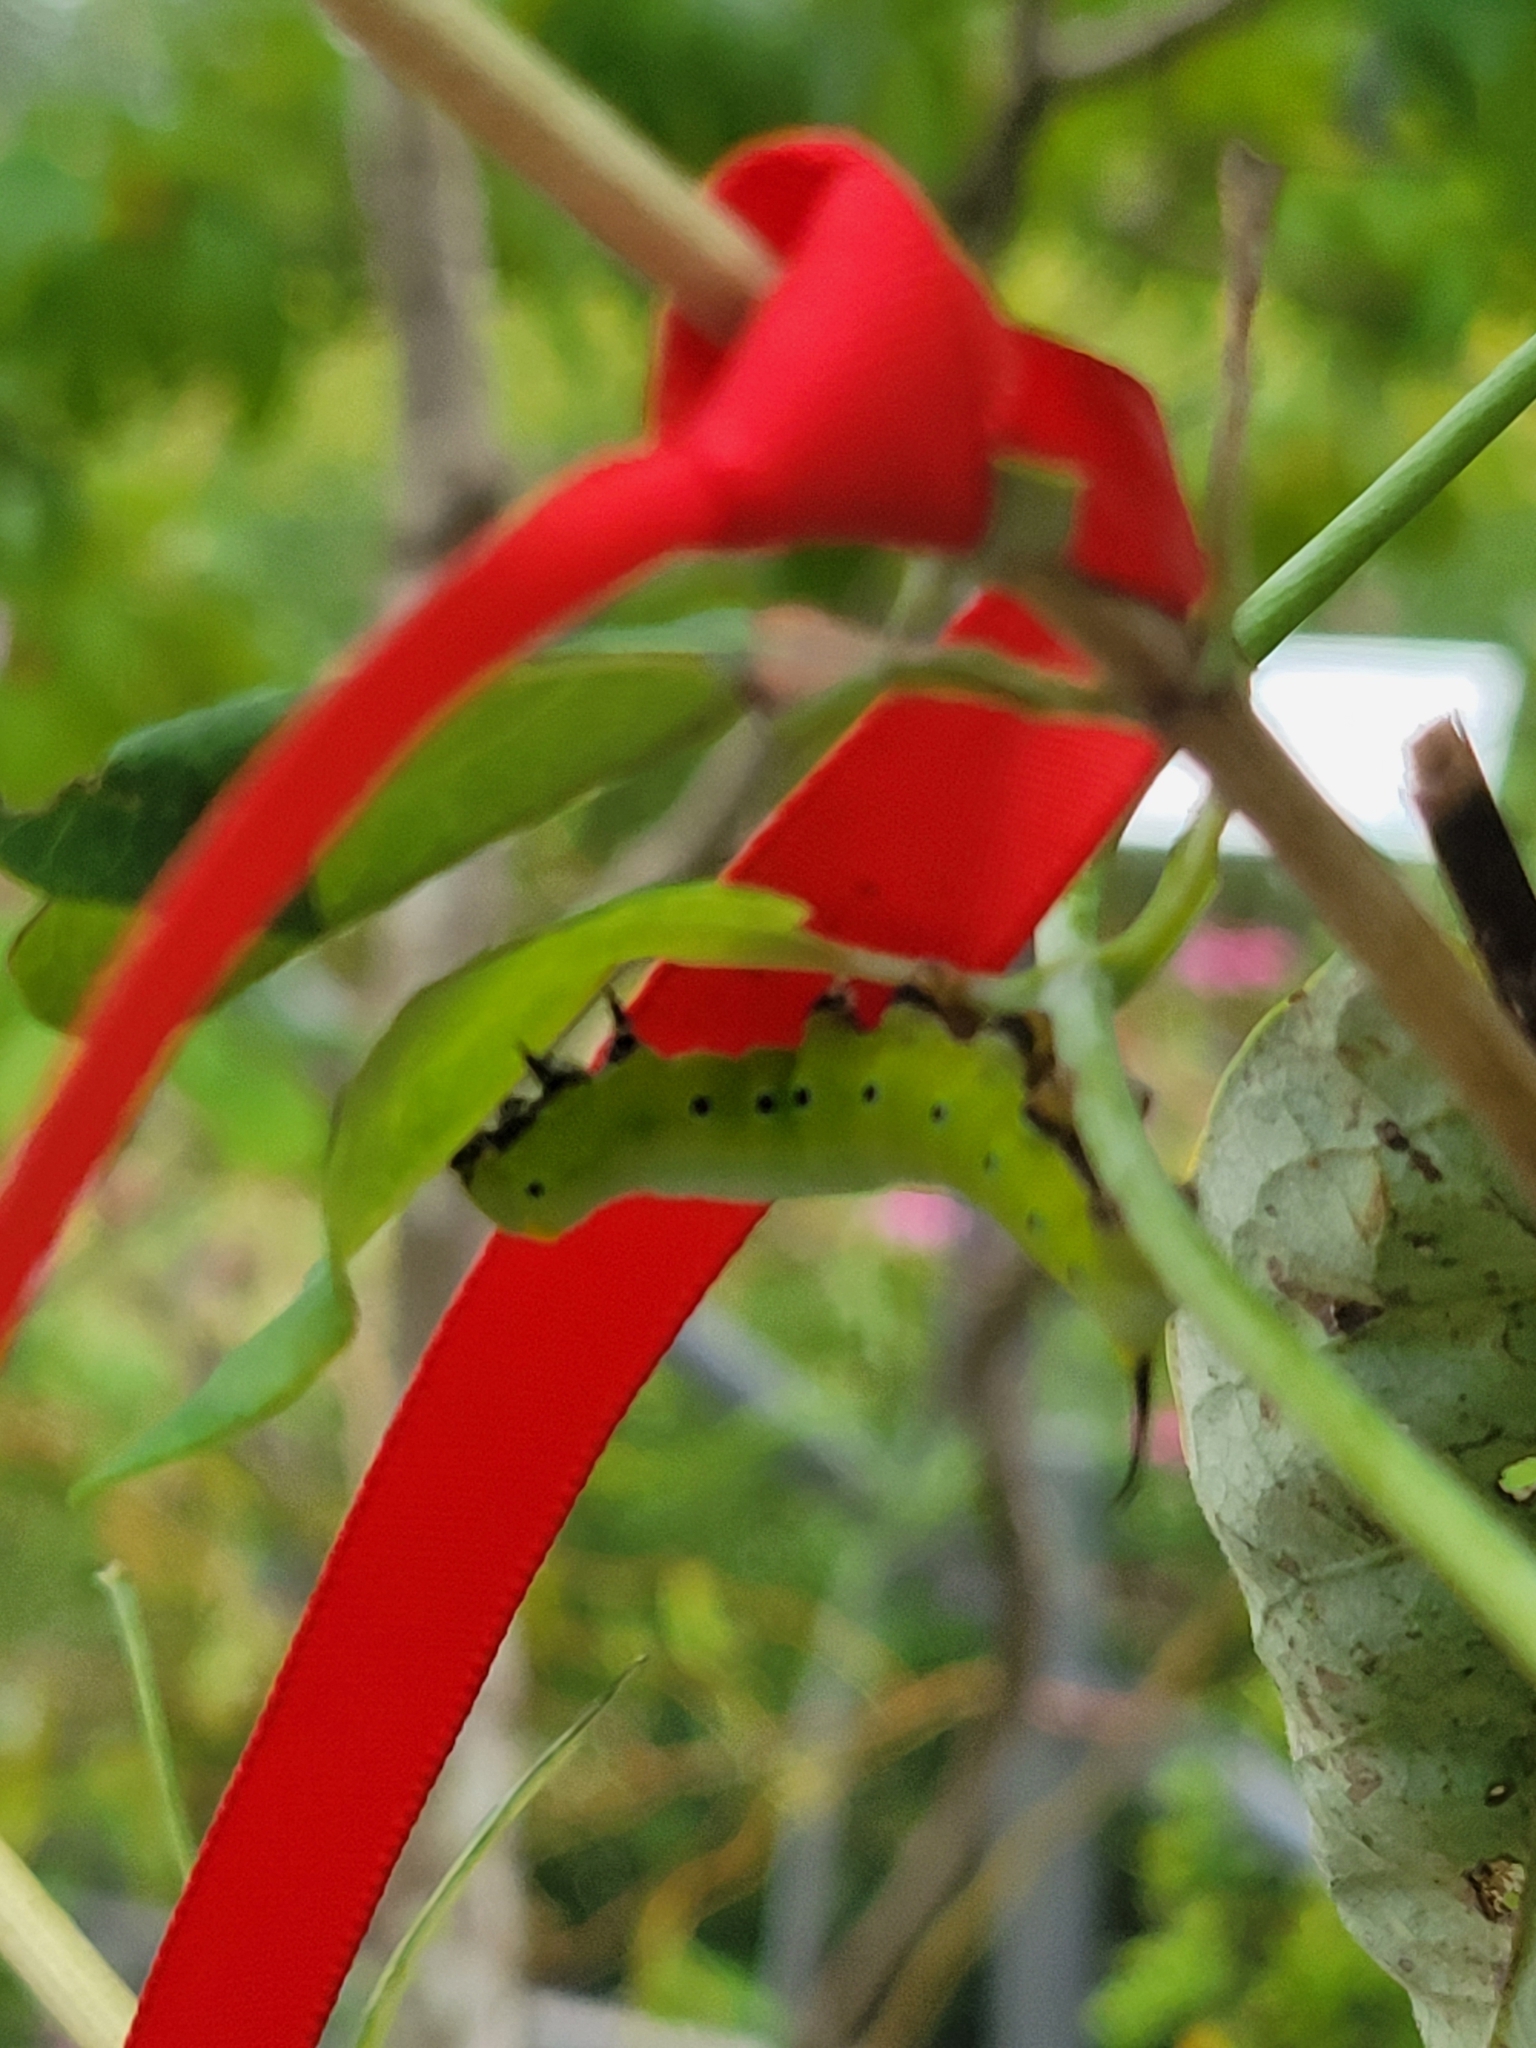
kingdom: Animalia
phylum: Arthropoda
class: Insecta
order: Lepidoptera
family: Sphingidae
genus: Hemaris
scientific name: Hemaris diffinis
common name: Bumblebee moth
